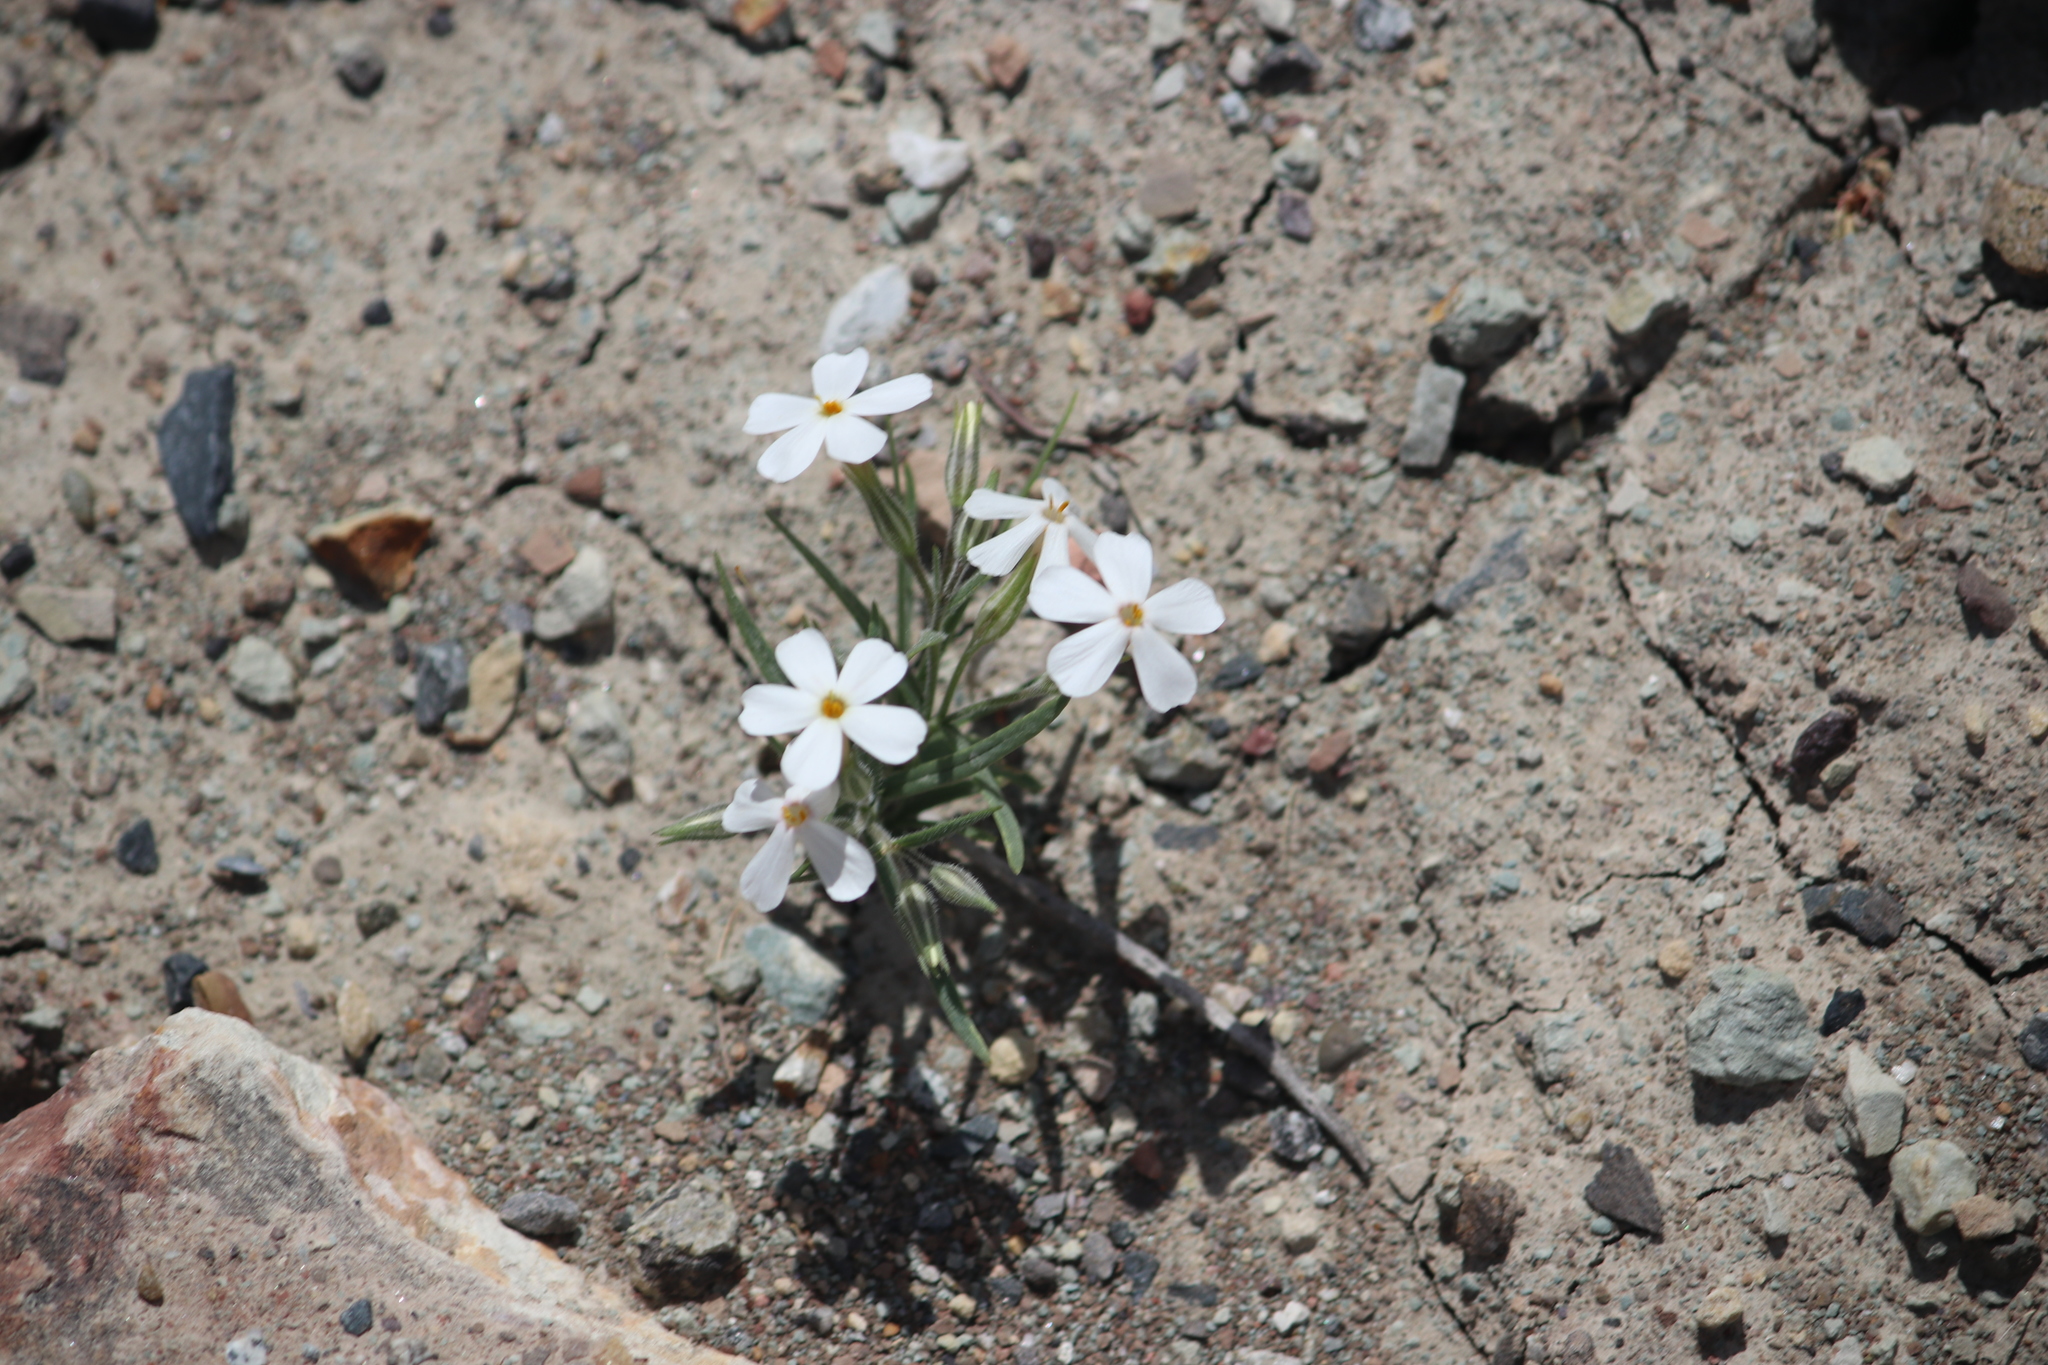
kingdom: Plantae
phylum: Tracheophyta
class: Magnoliopsida
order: Ericales
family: Polemoniaceae
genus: Phlox
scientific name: Phlox longifolia
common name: Longleaf phlox
